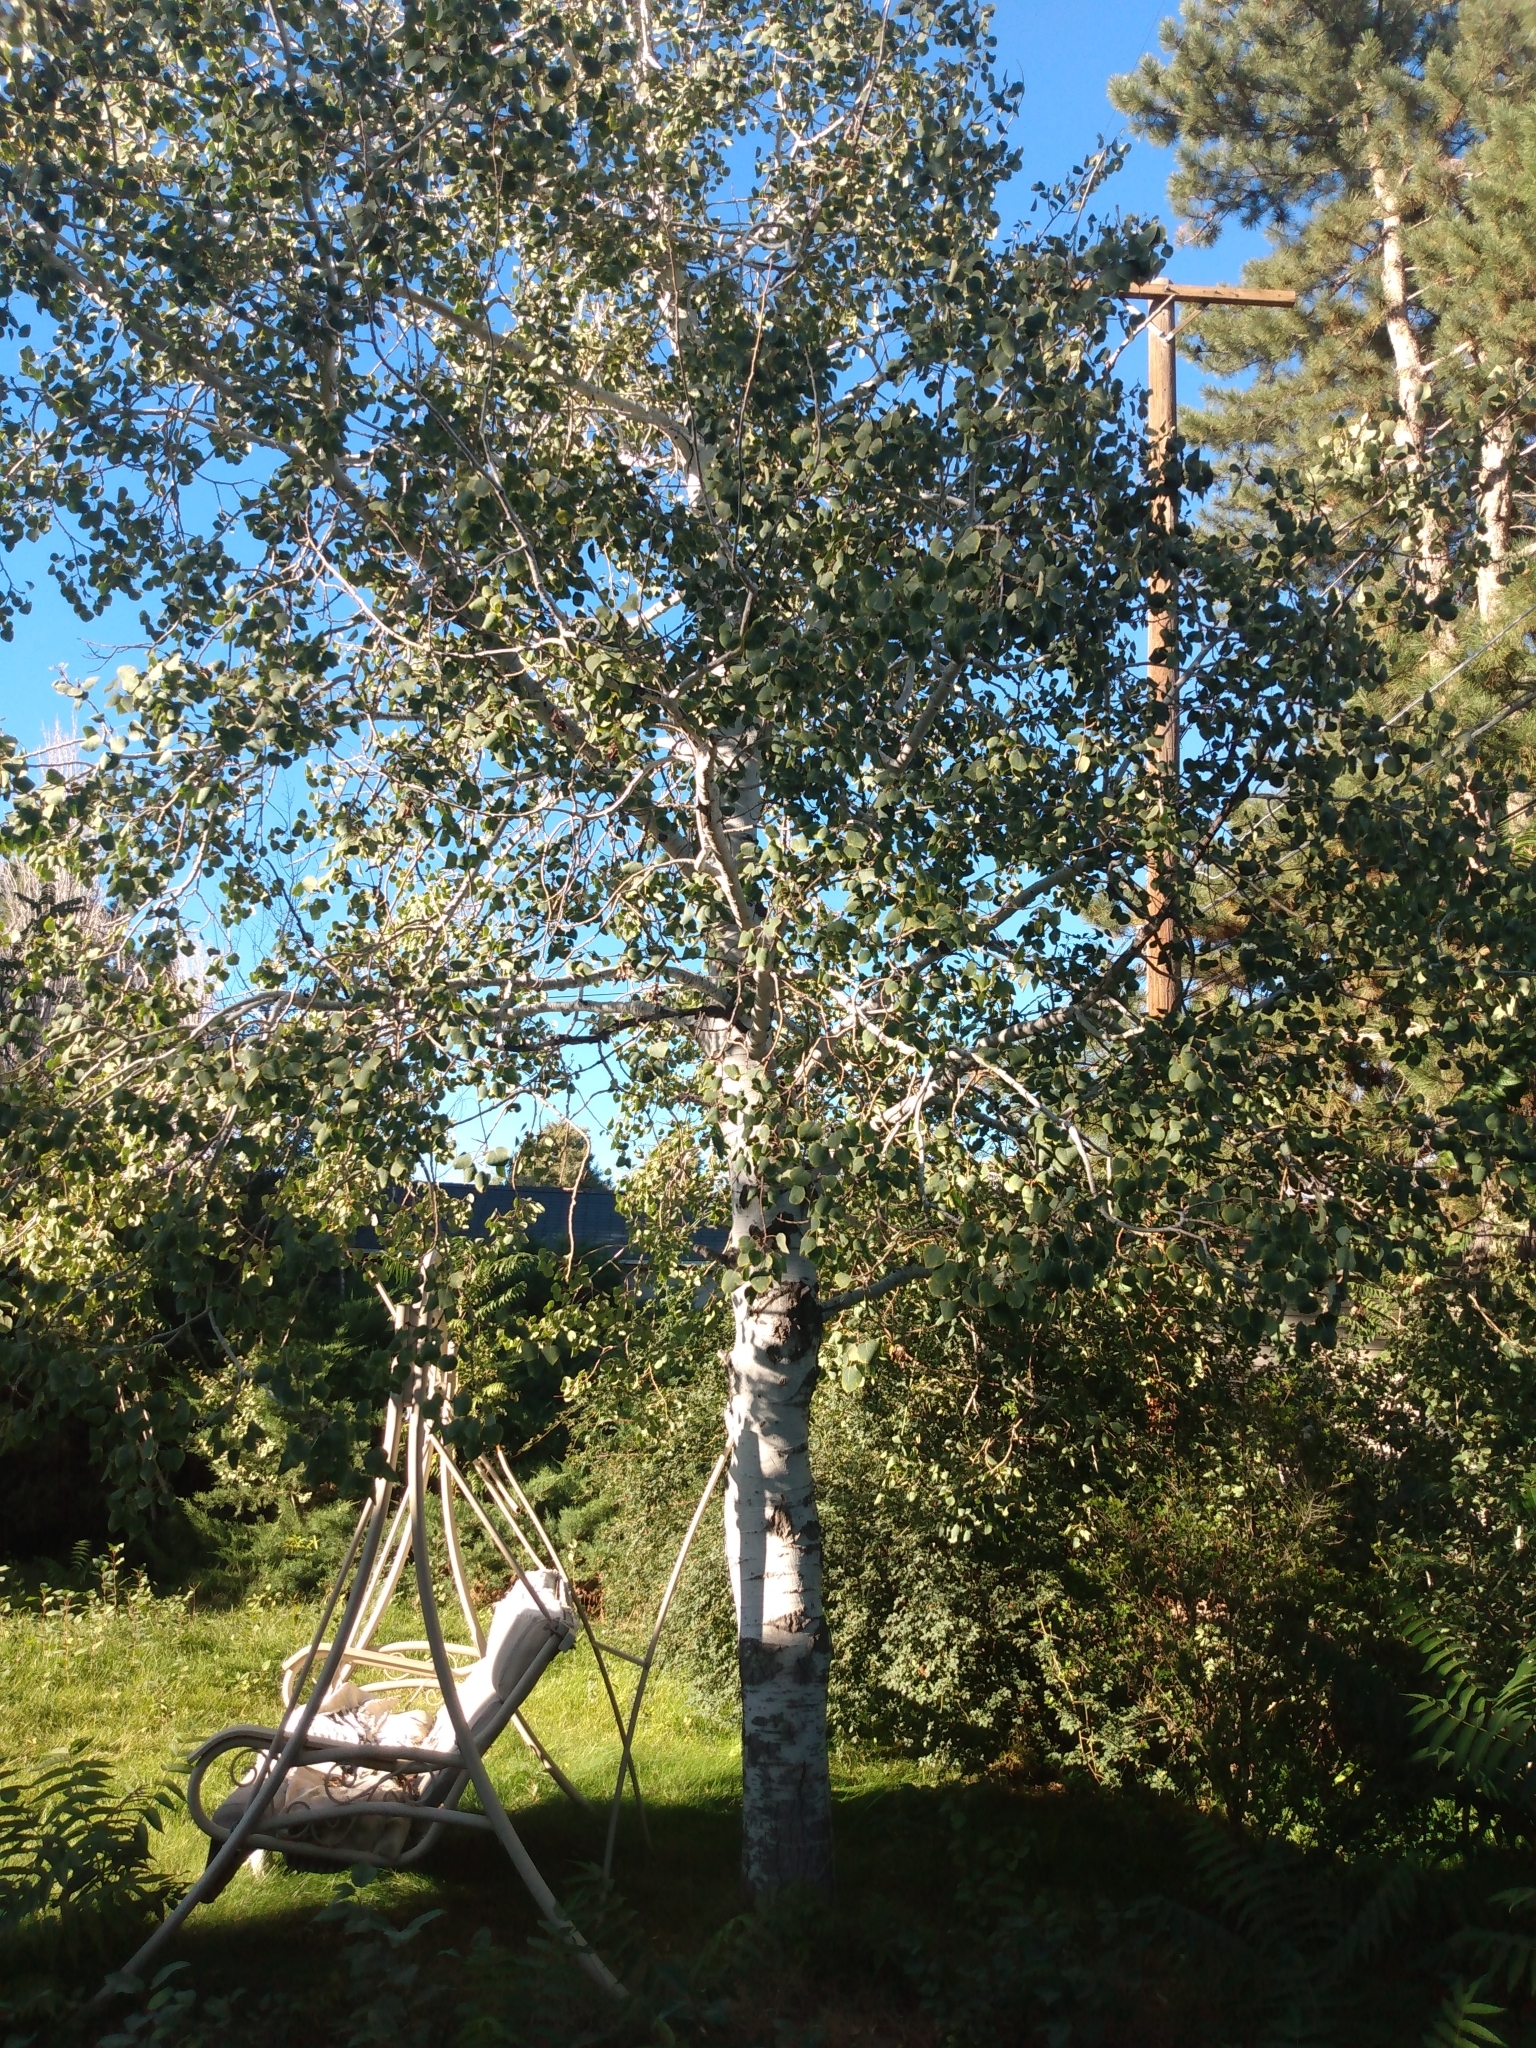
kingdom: Plantae
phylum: Tracheophyta
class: Magnoliopsida
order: Malpighiales
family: Salicaceae
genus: Populus
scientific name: Populus tremuloides
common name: Quaking aspen
